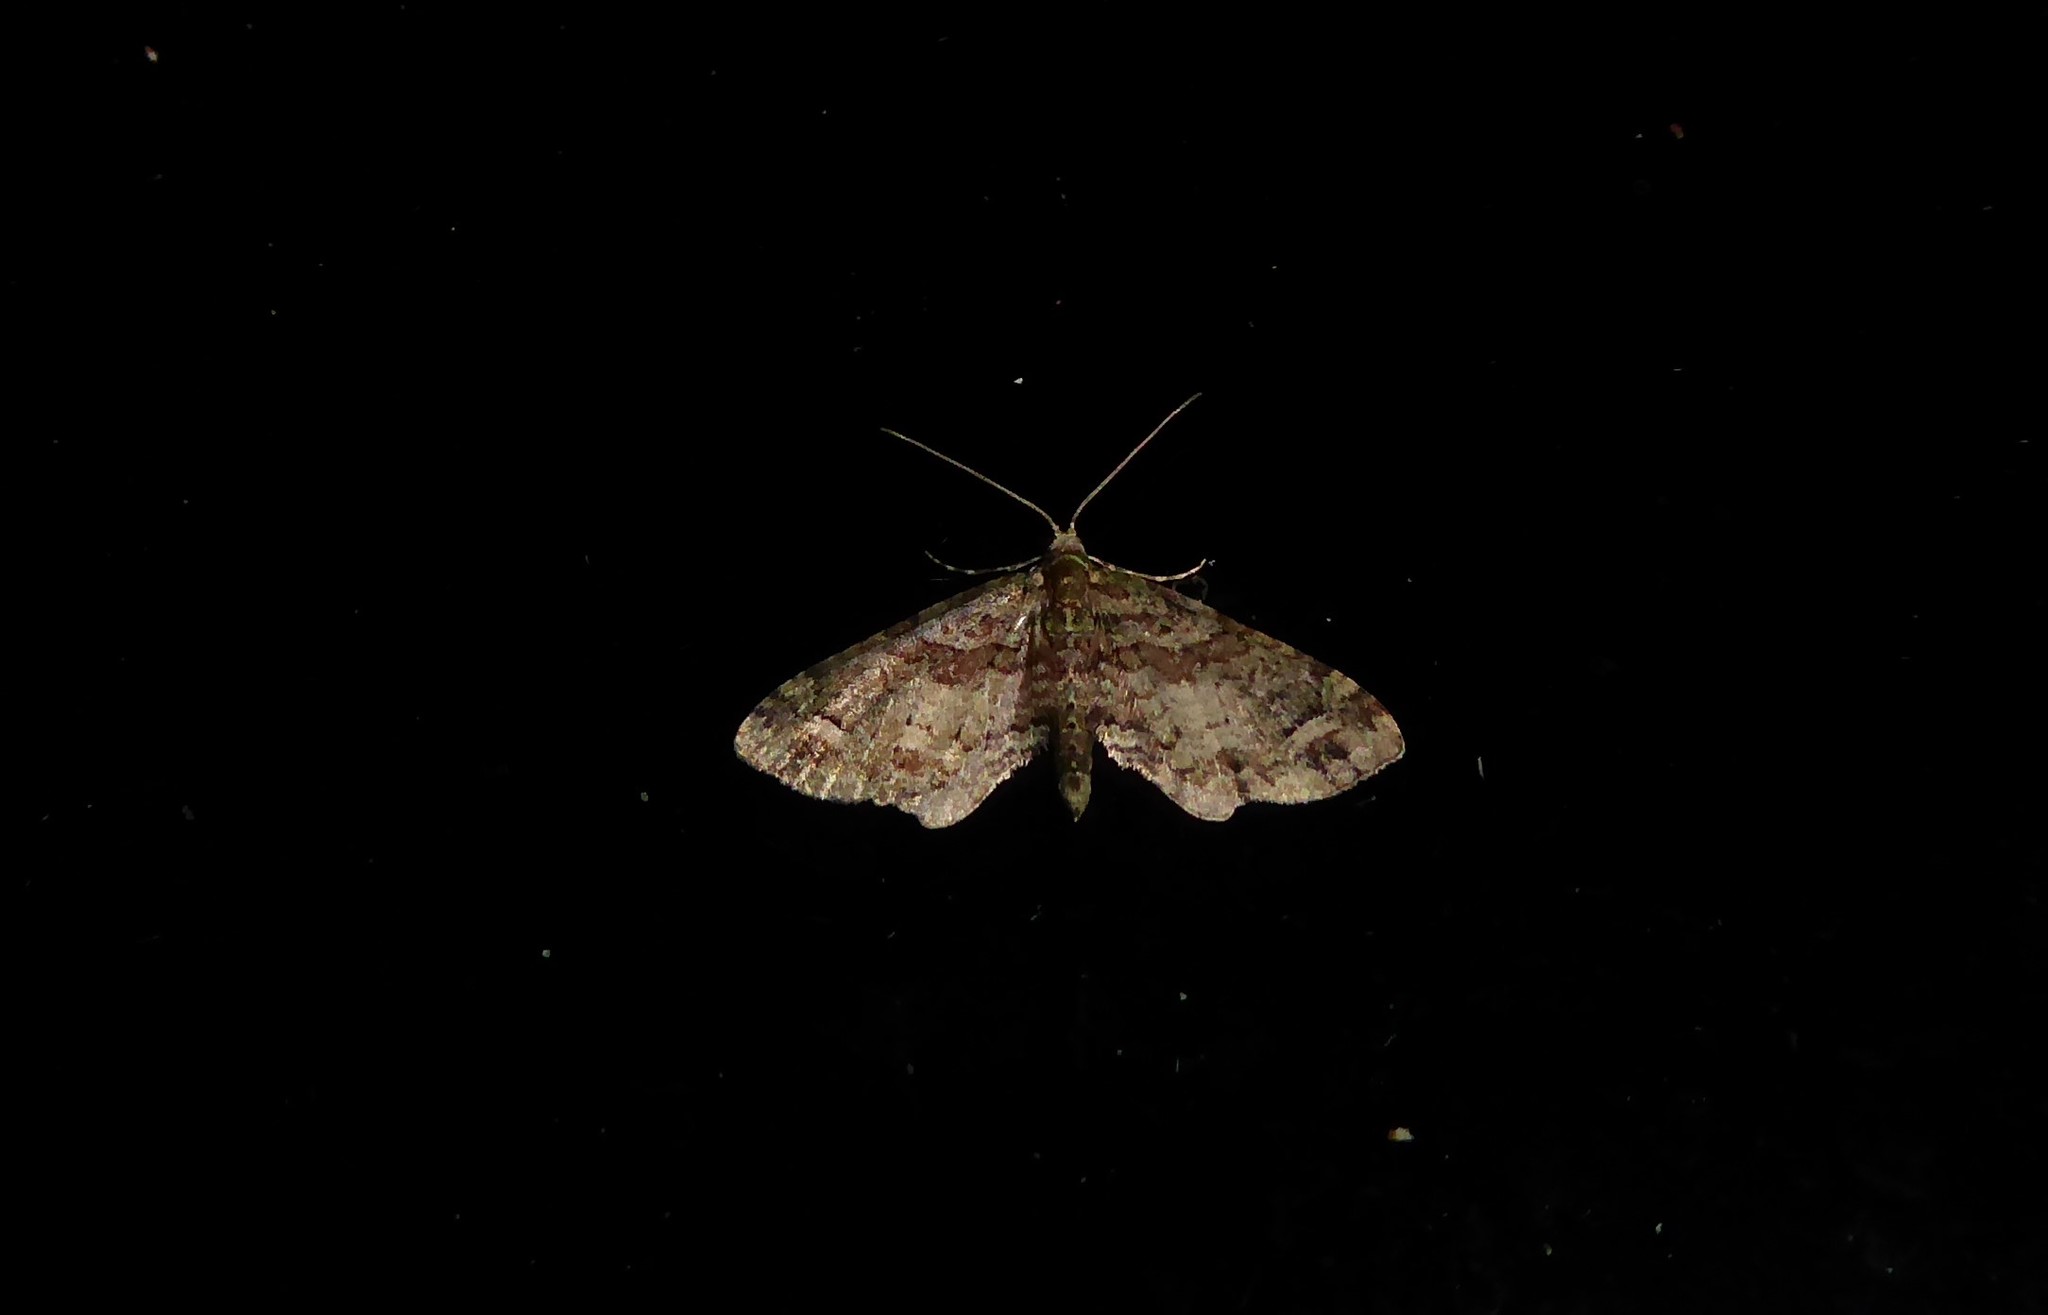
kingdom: Animalia
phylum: Arthropoda
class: Insecta
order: Lepidoptera
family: Geometridae
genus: Idaea
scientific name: Idaea mutanda
